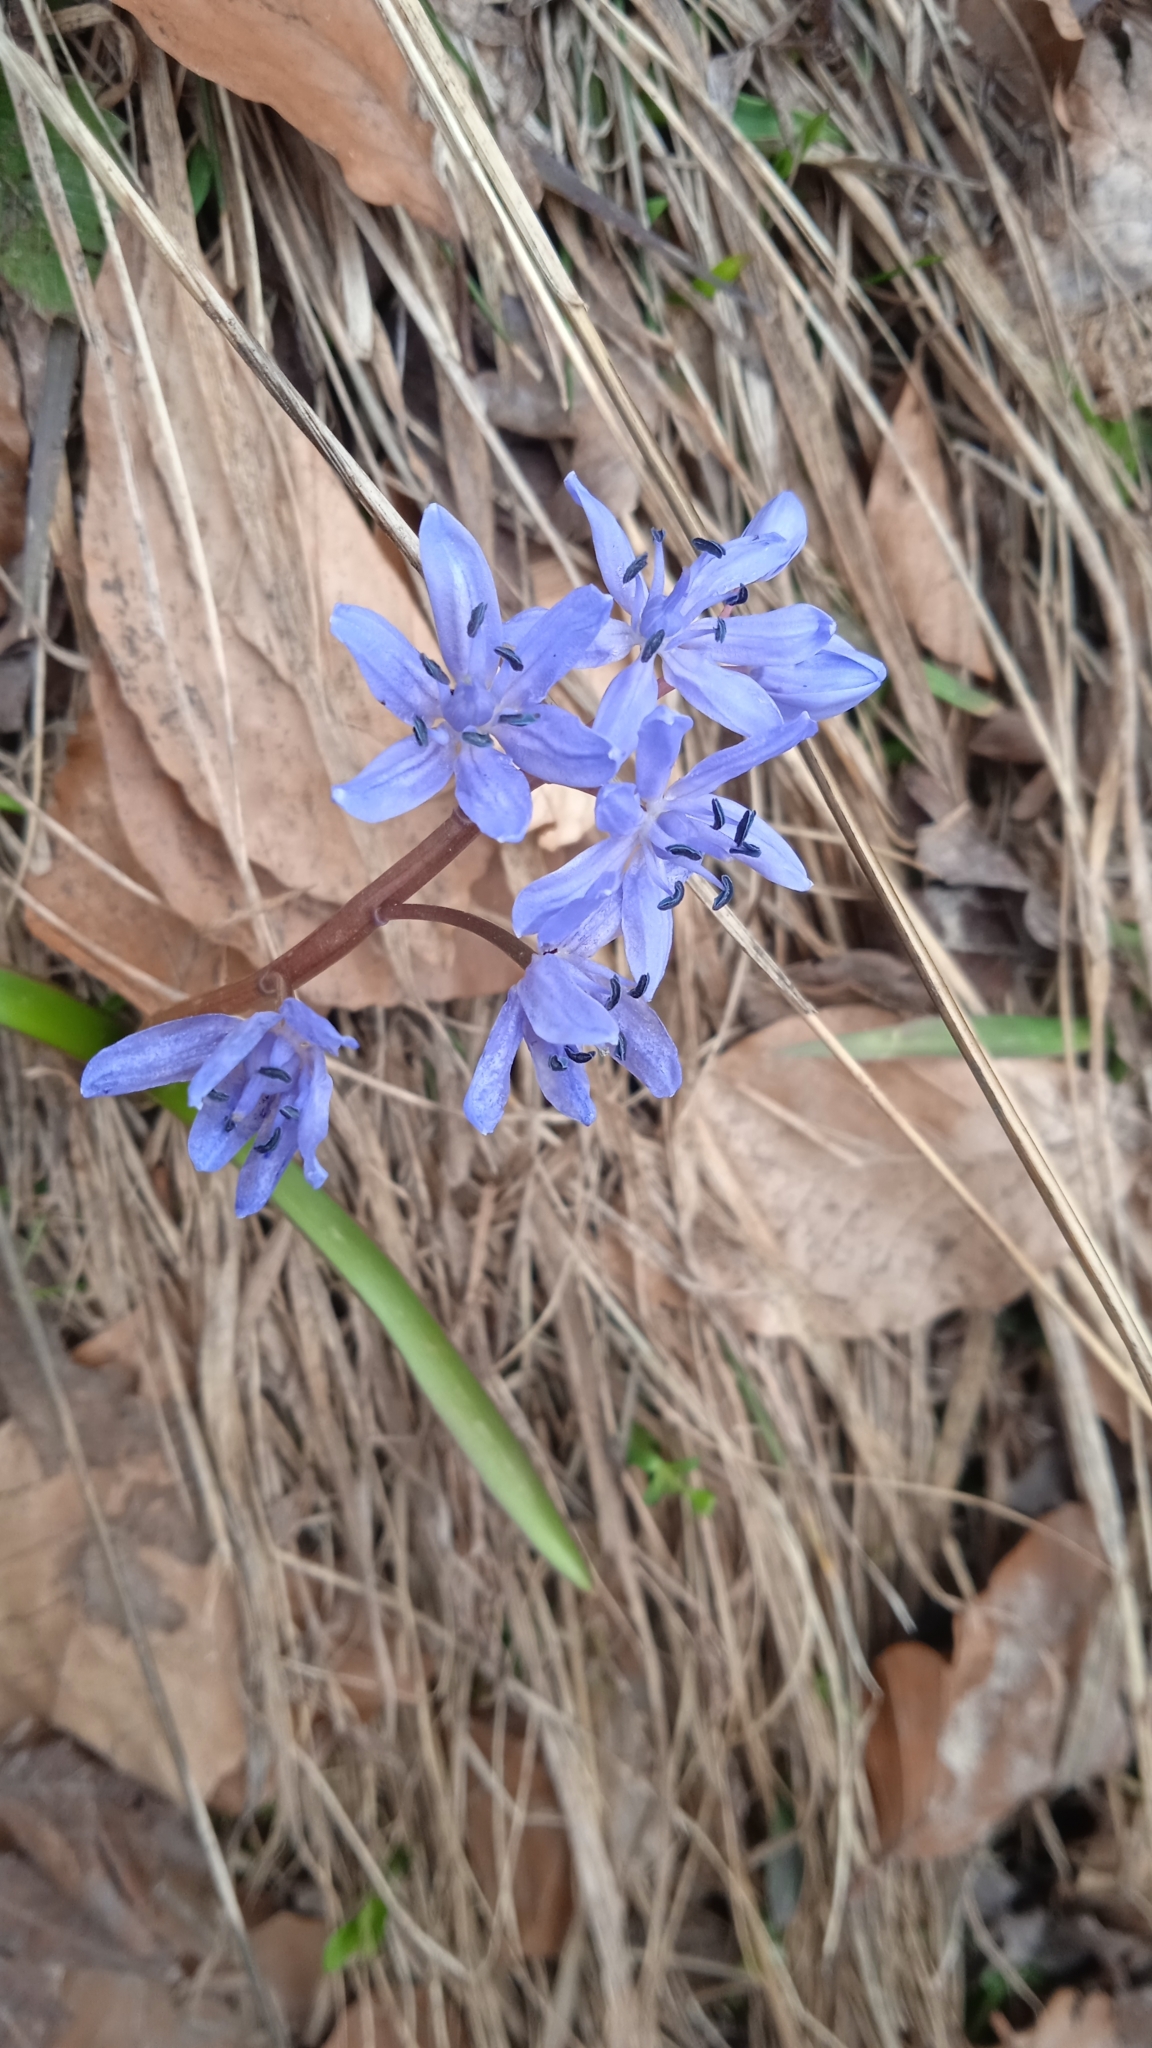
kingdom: Plantae
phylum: Tracheophyta
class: Liliopsida
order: Asparagales
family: Asparagaceae
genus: Scilla
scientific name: Scilla bifolia
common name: Alpine squill
